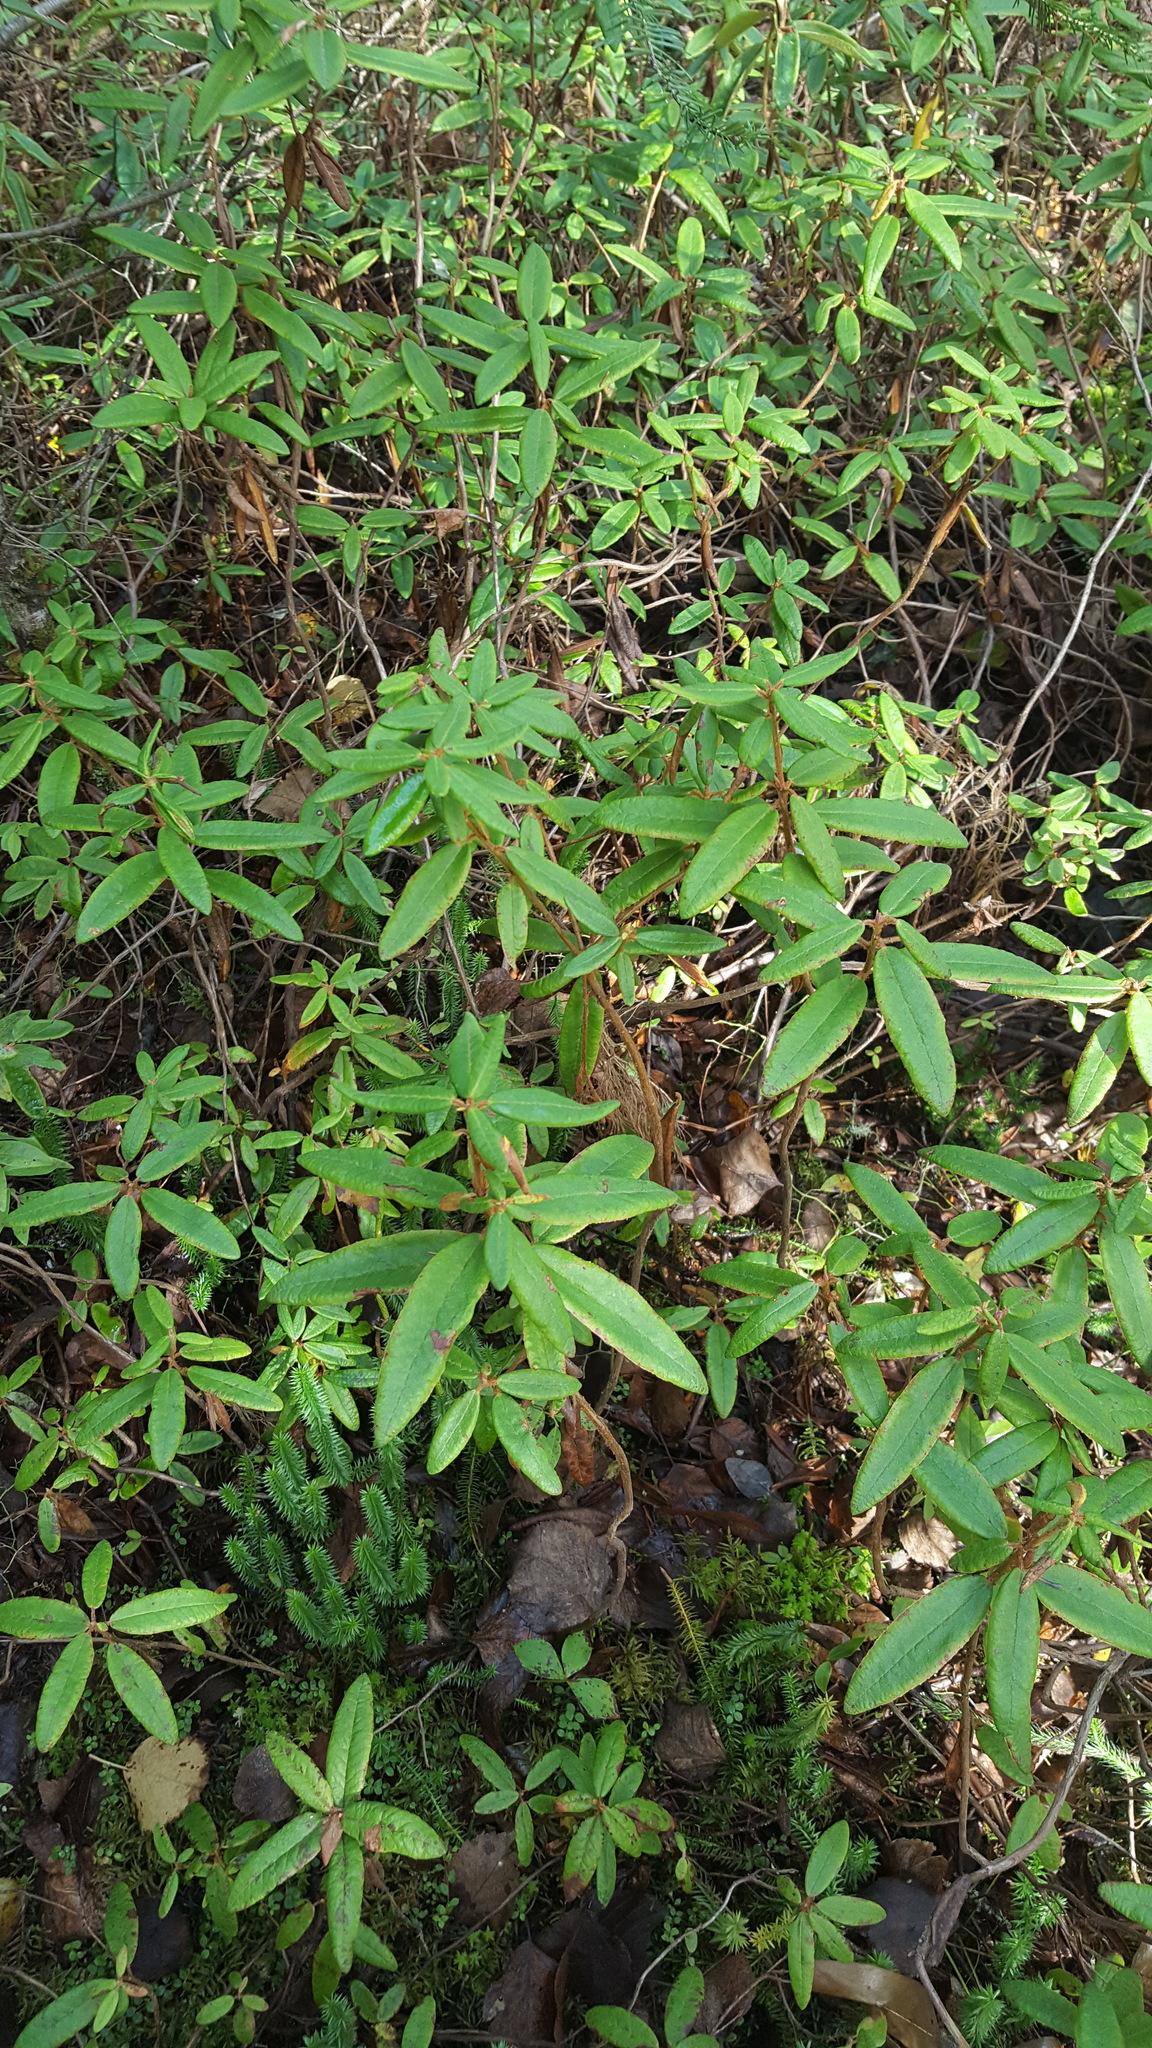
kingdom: Plantae
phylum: Tracheophyta
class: Magnoliopsida
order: Ericales
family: Ericaceae
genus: Rhododendron
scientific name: Rhododendron groenlandicum
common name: Bog labrador tea
